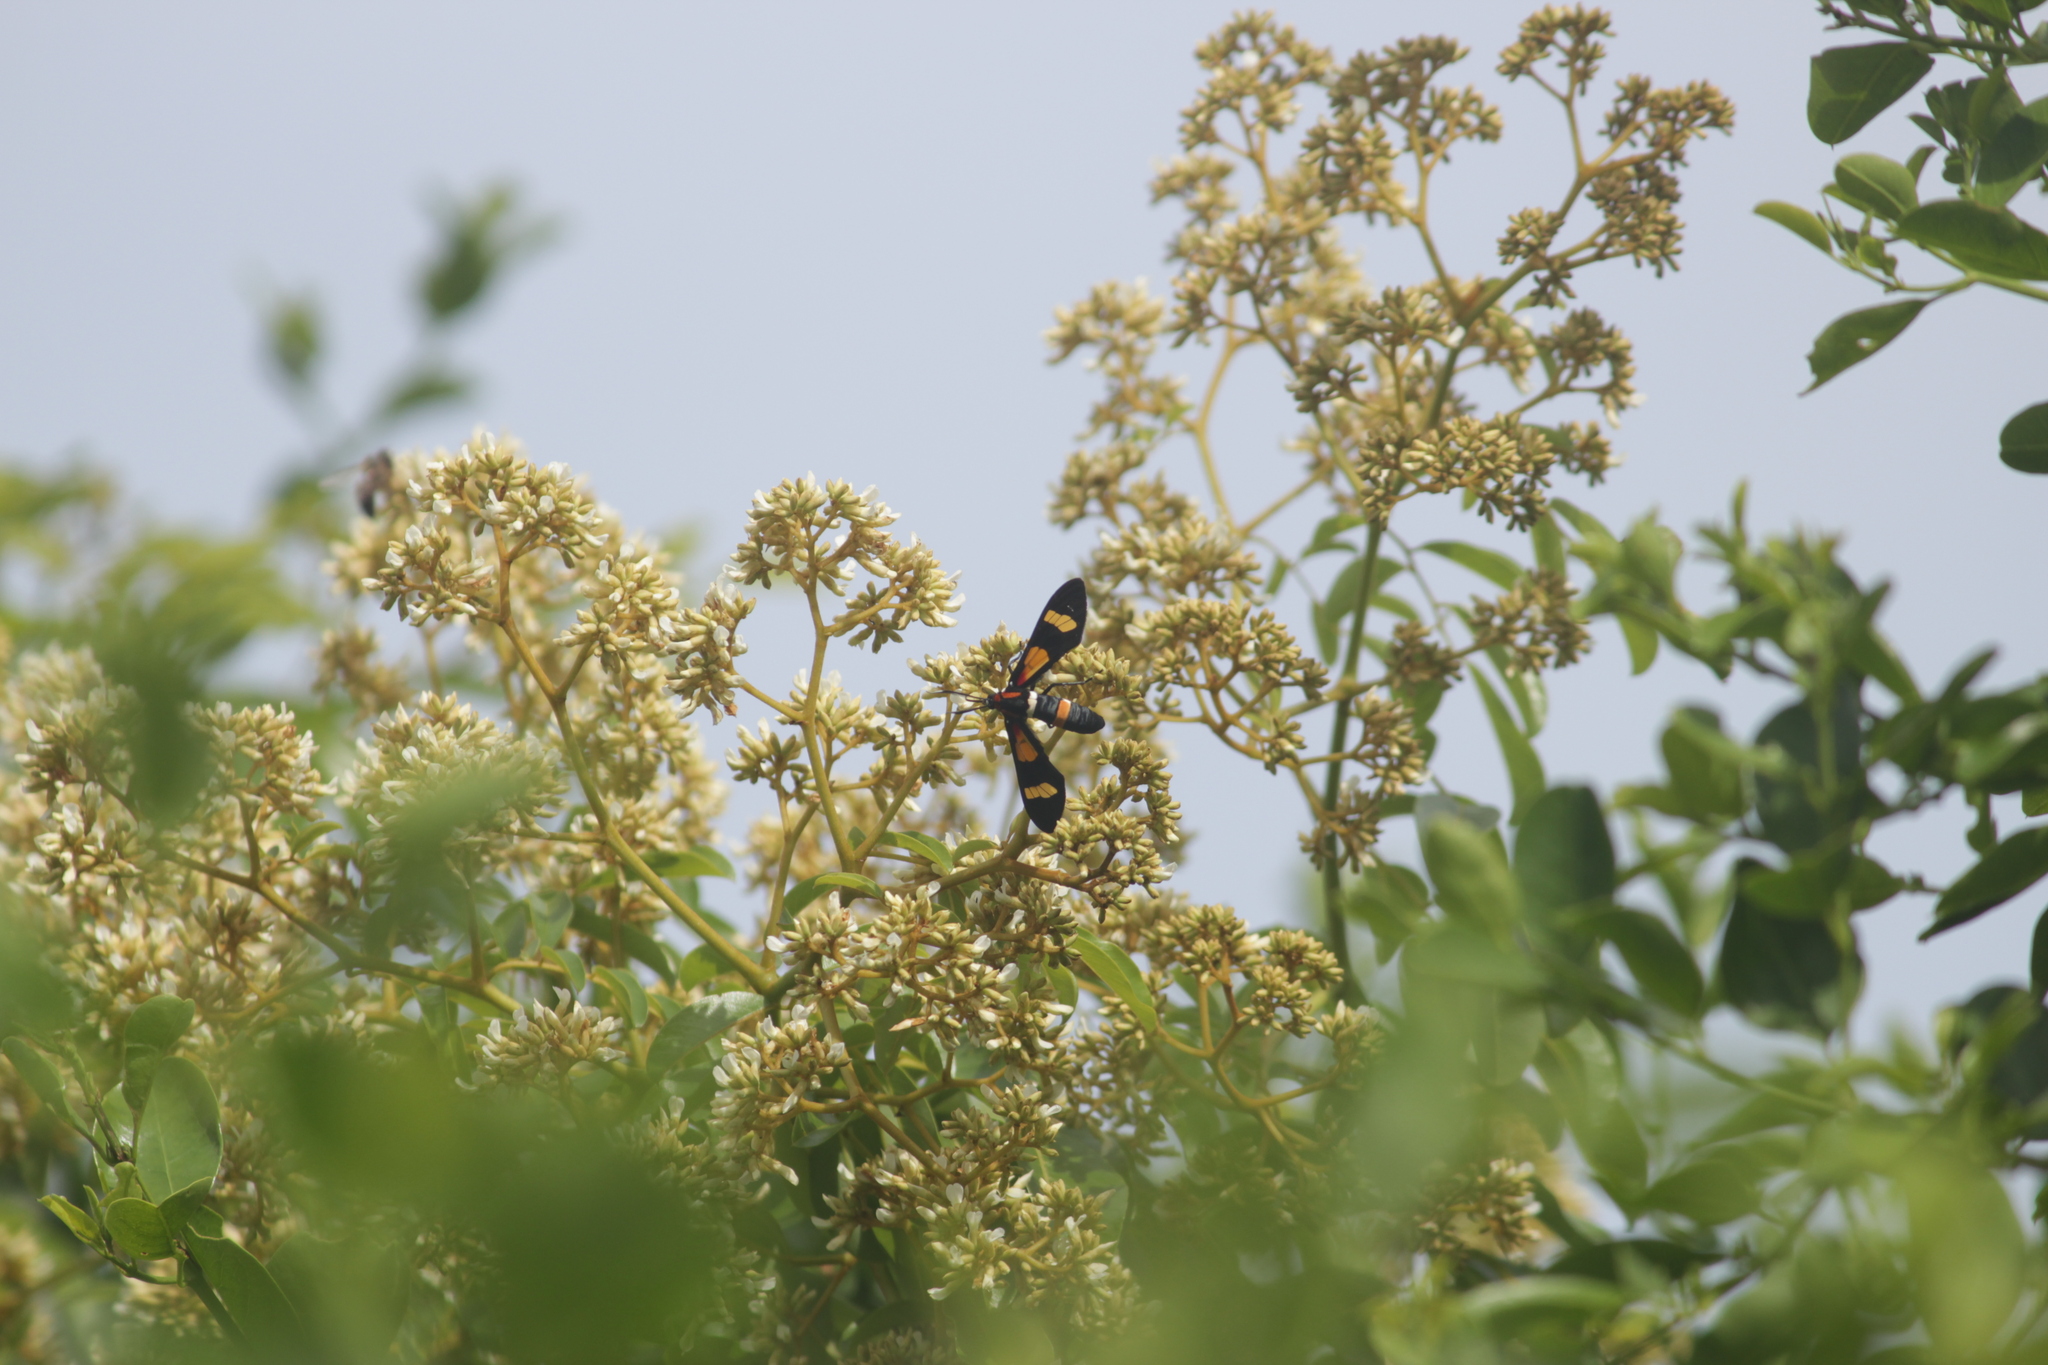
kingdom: Animalia
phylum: Arthropoda
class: Insecta
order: Lepidoptera
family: Erebidae
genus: Euchromia
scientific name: Euchromia amoena
